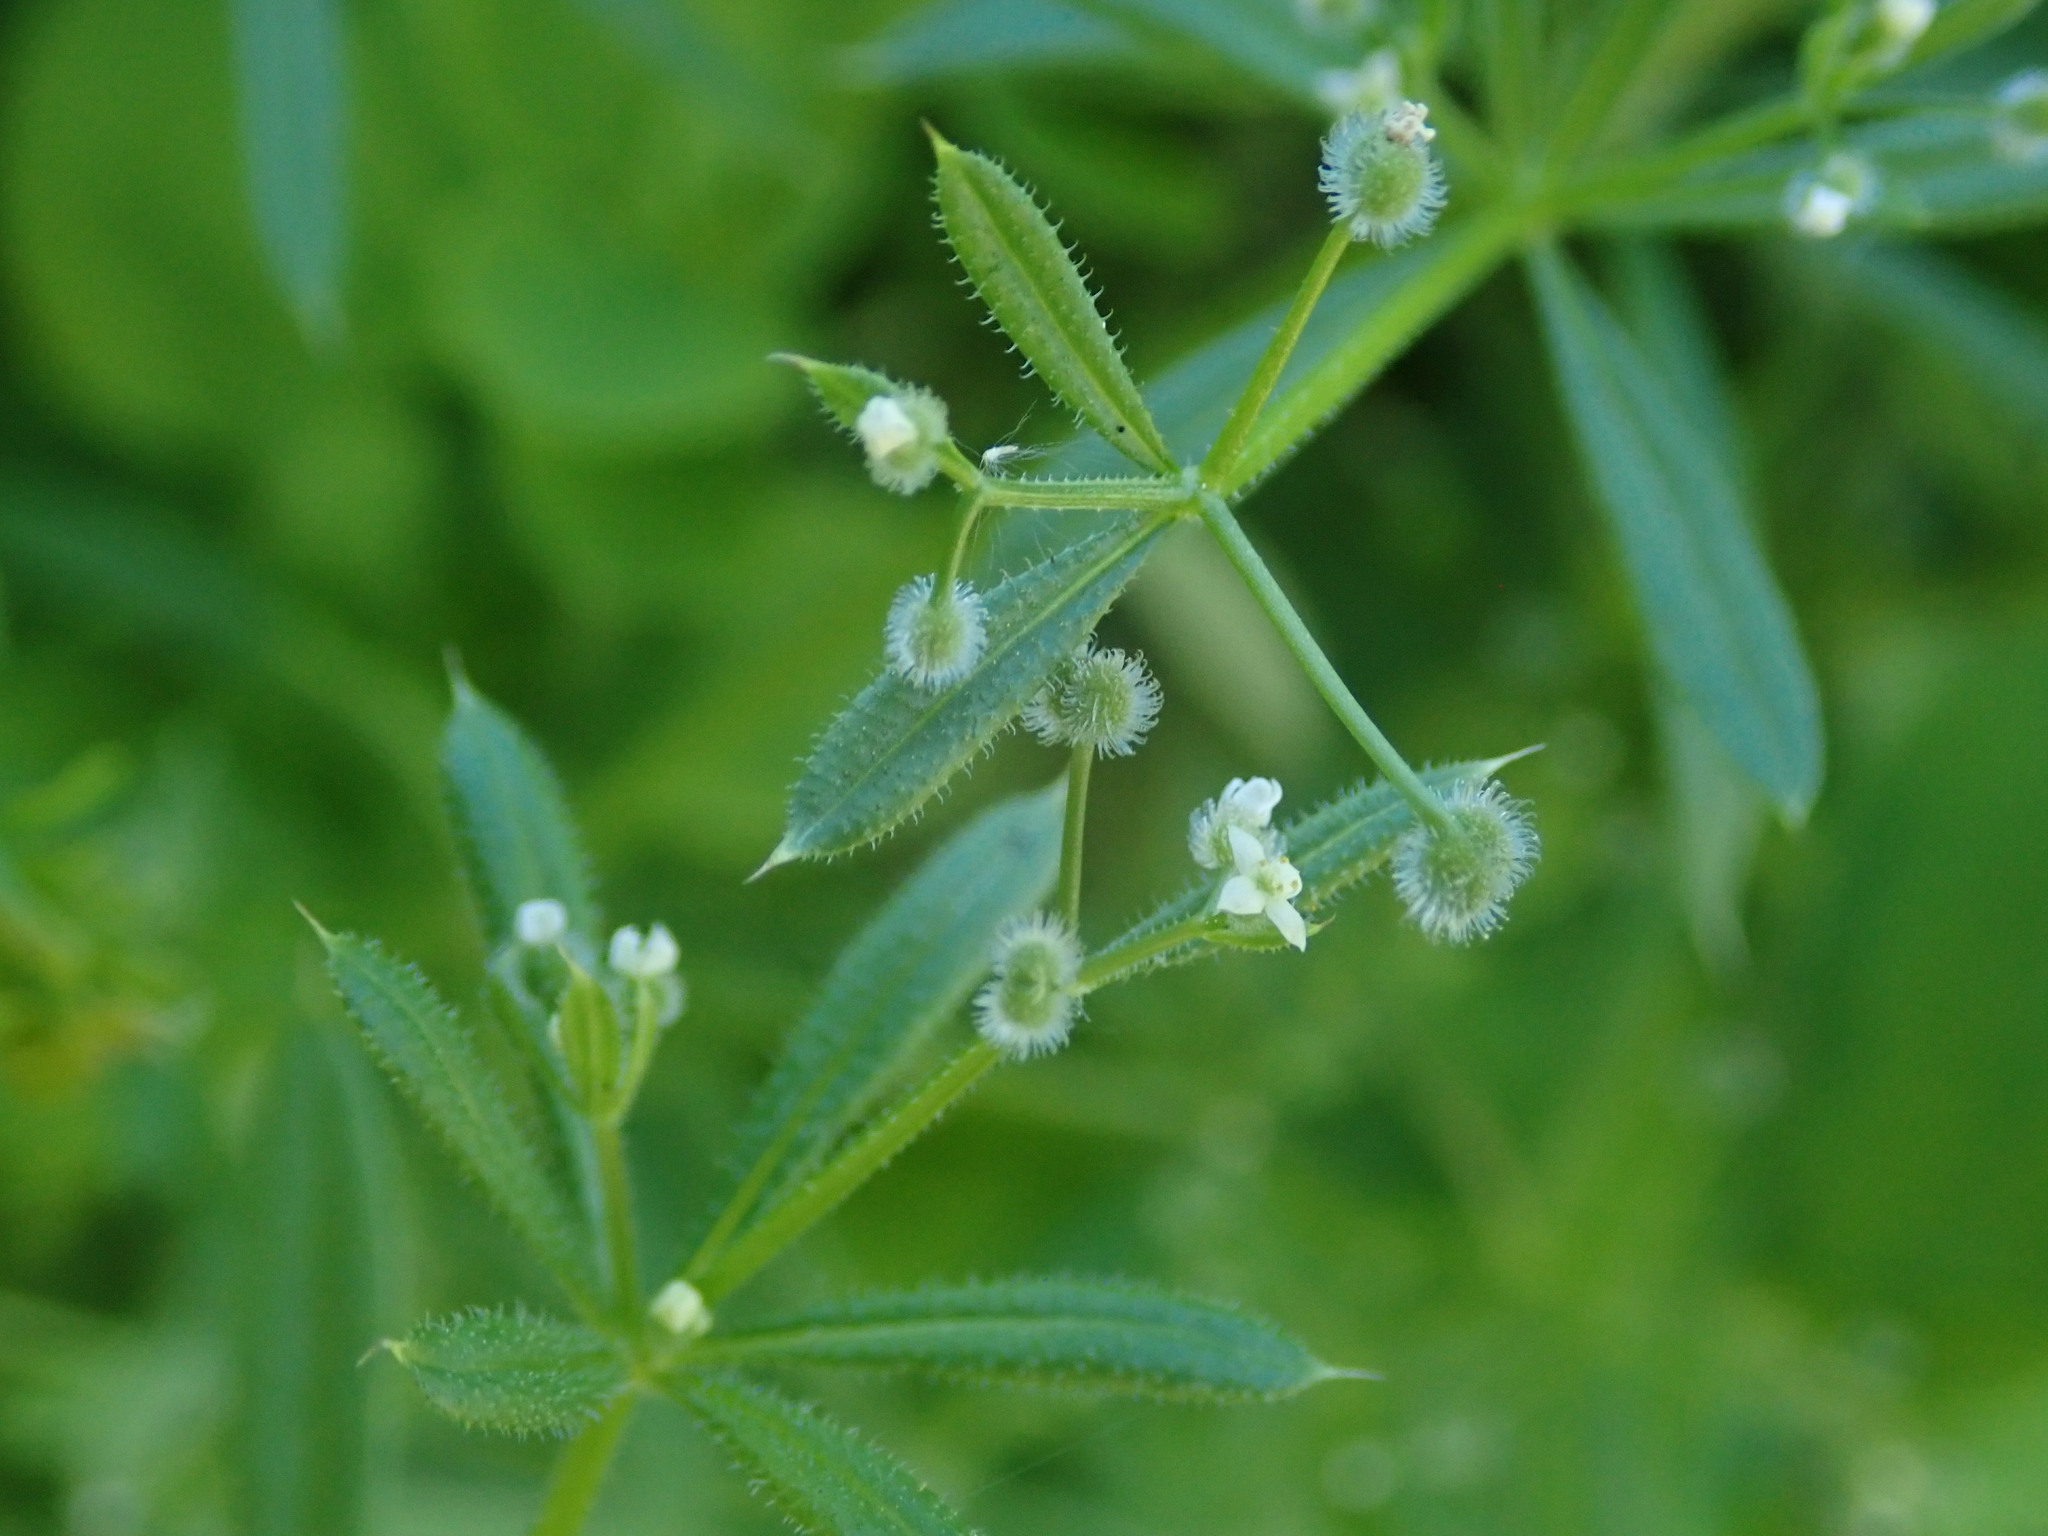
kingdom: Plantae
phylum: Tracheophyta
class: Magnoliopsida
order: Gentianales
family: Rubiaceae
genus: Galium
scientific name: Galium aparine
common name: Cleavers
